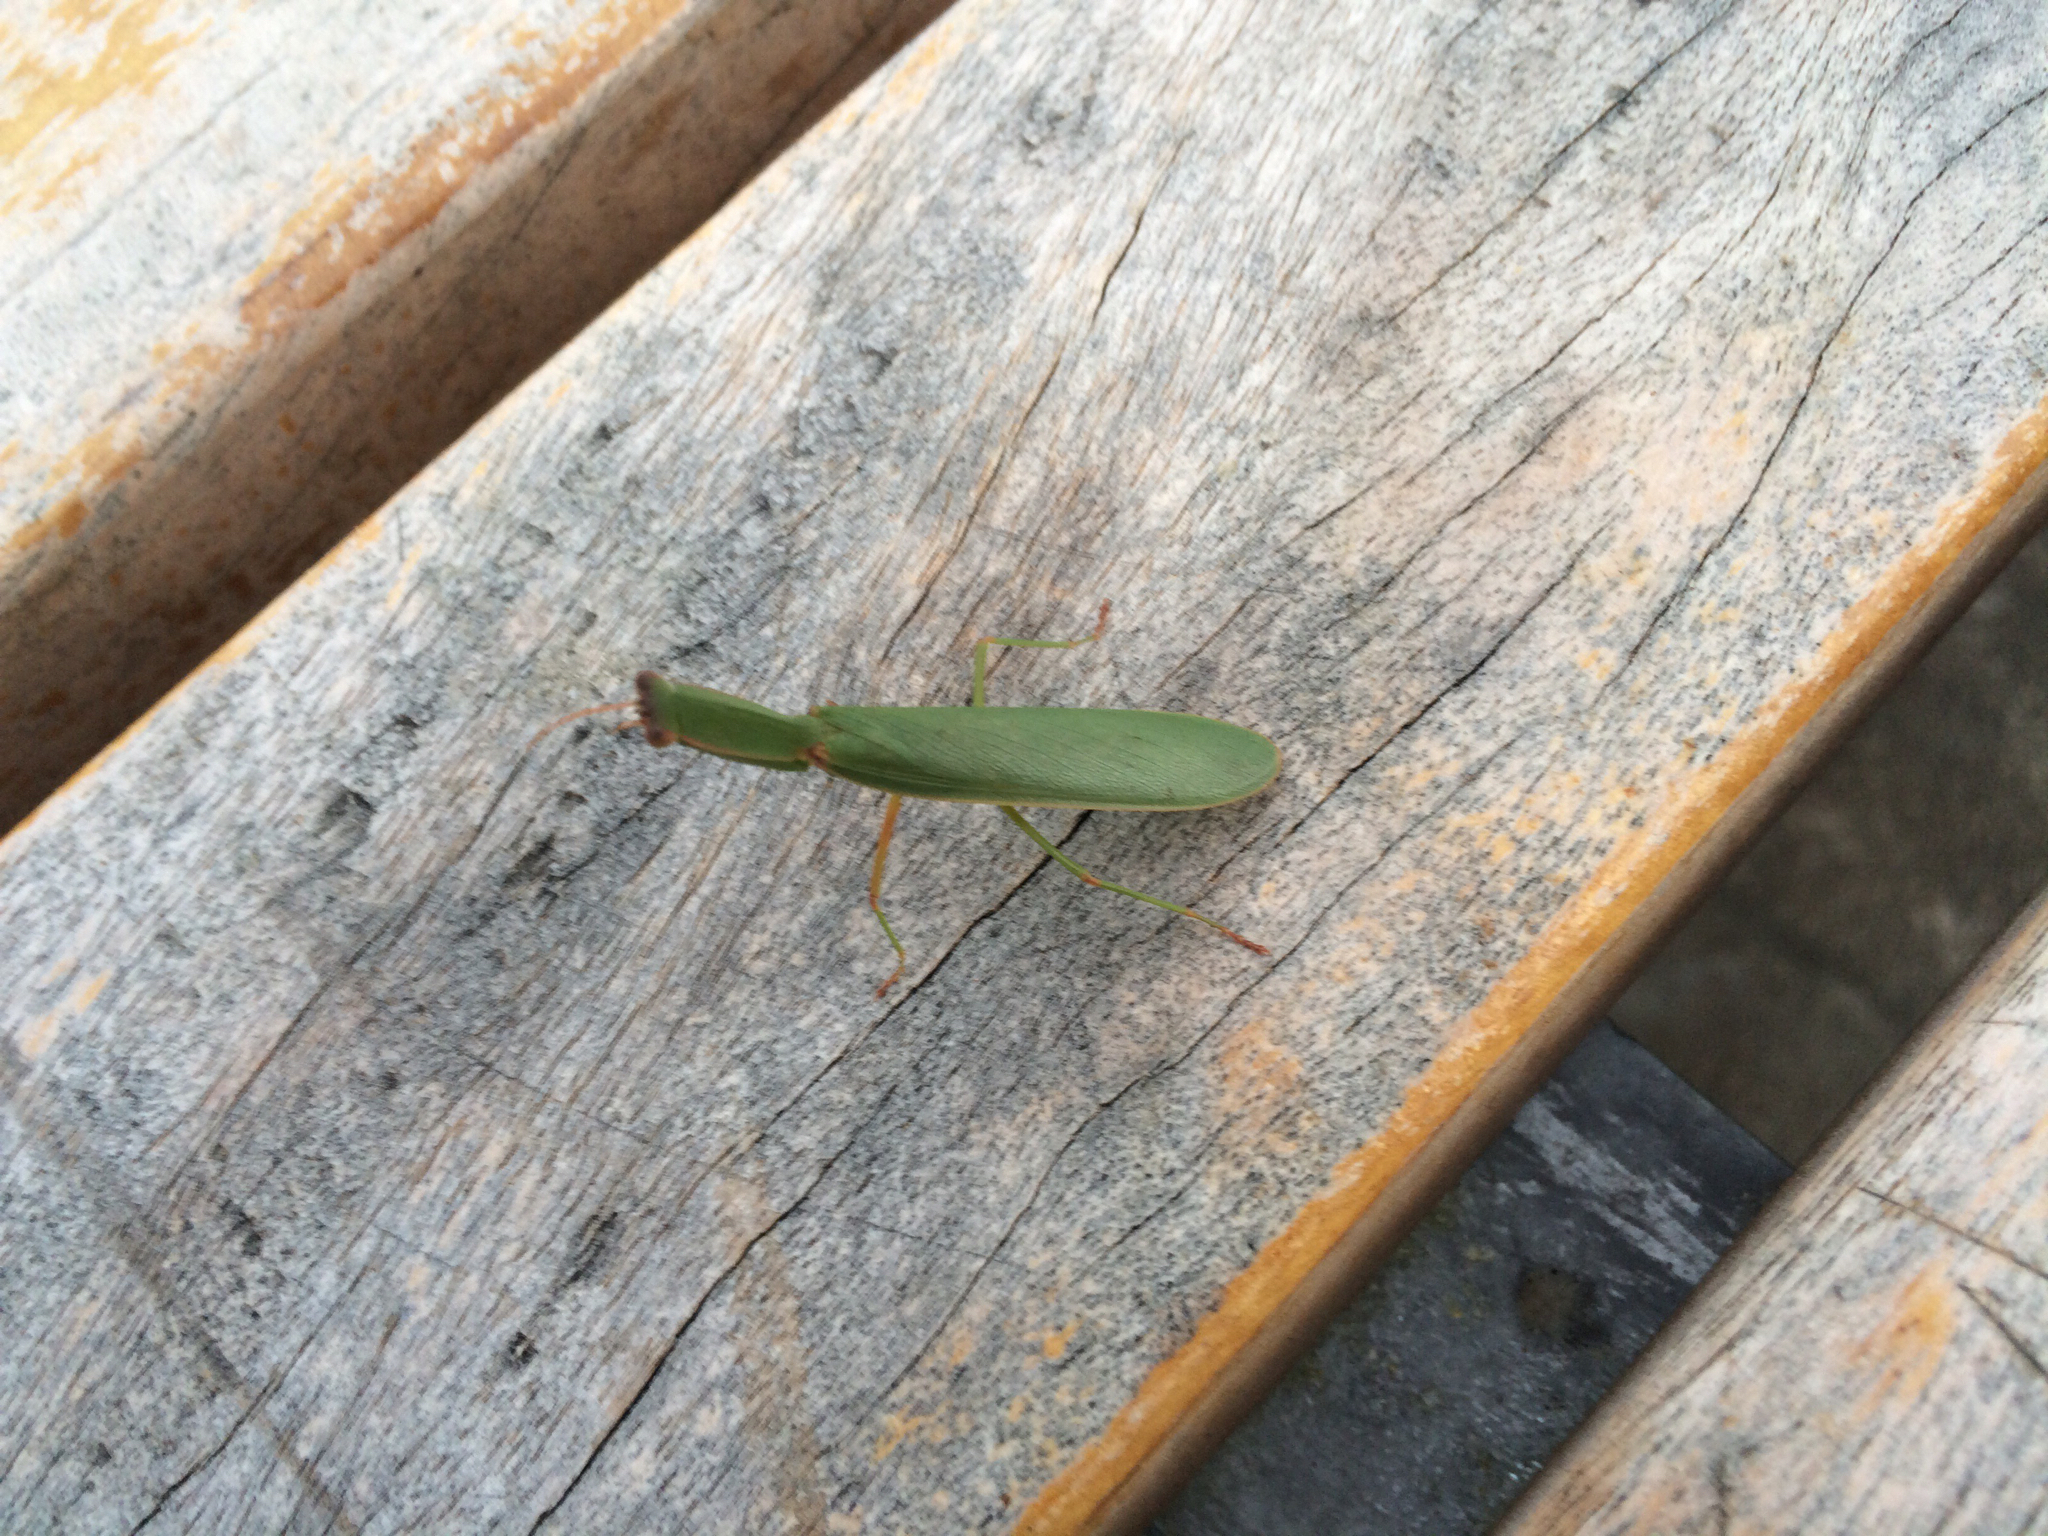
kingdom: Animalia
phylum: Arthropoda
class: Insecta
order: Mantodea
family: Mantidae
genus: Orthodera
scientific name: Orthodera novaezealandiae
